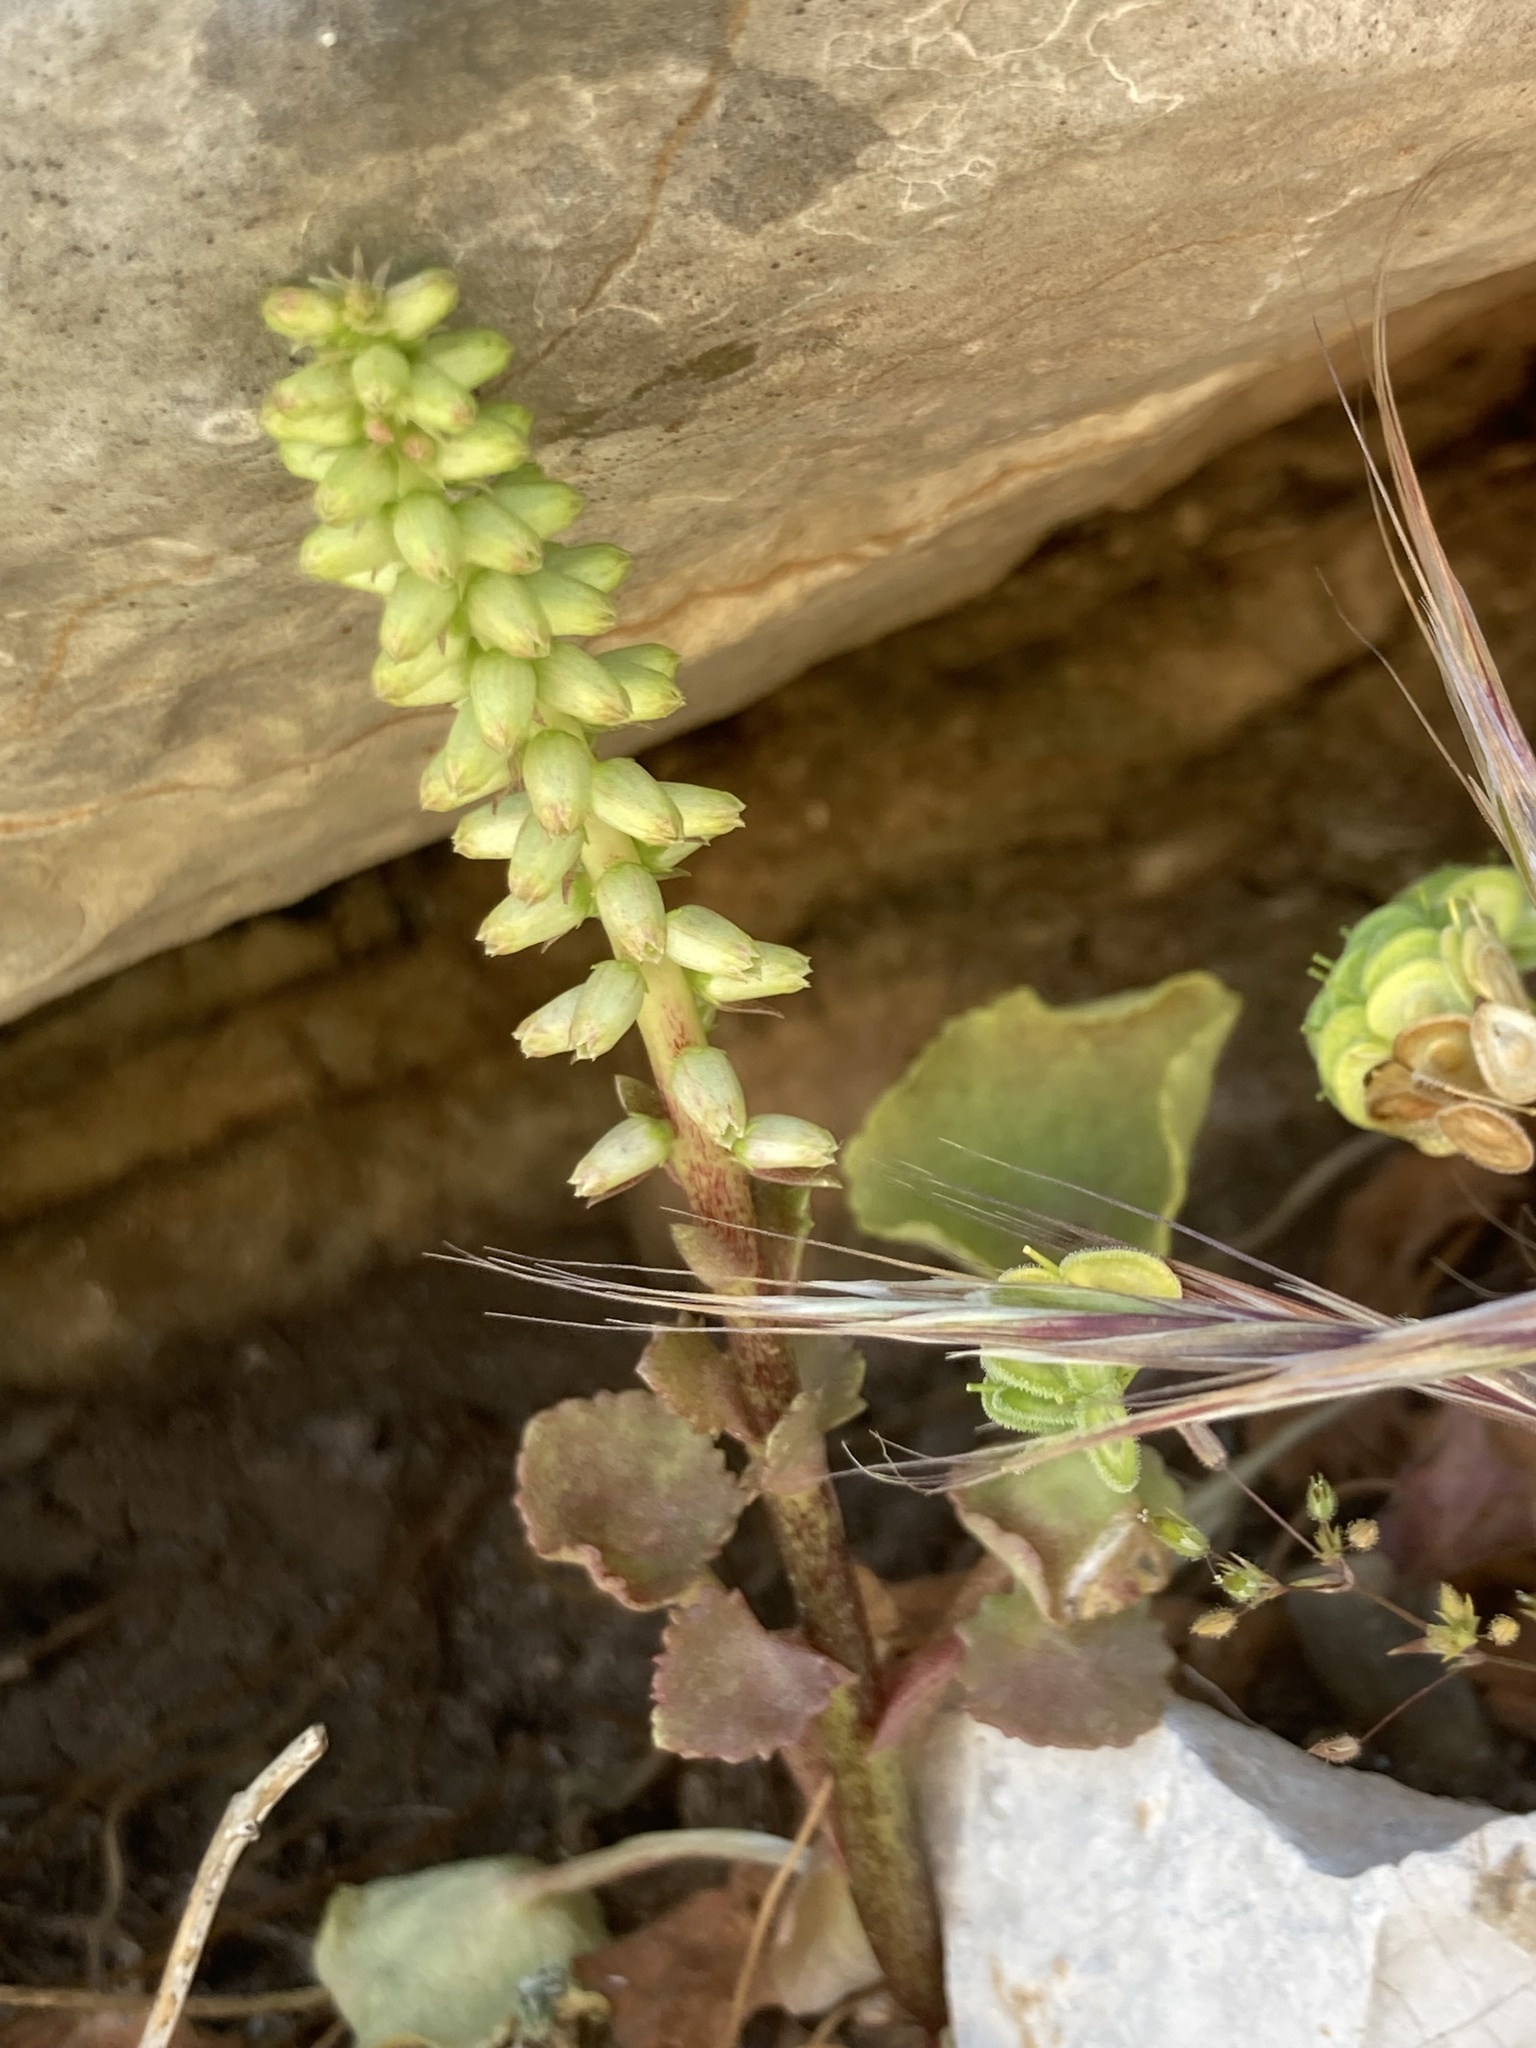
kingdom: Plantae
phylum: Tracheophyta
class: Magnoliopsida
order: Saxifragales
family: Crassulaceae
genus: Umbilicus
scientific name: Umbilicus horizontalis
